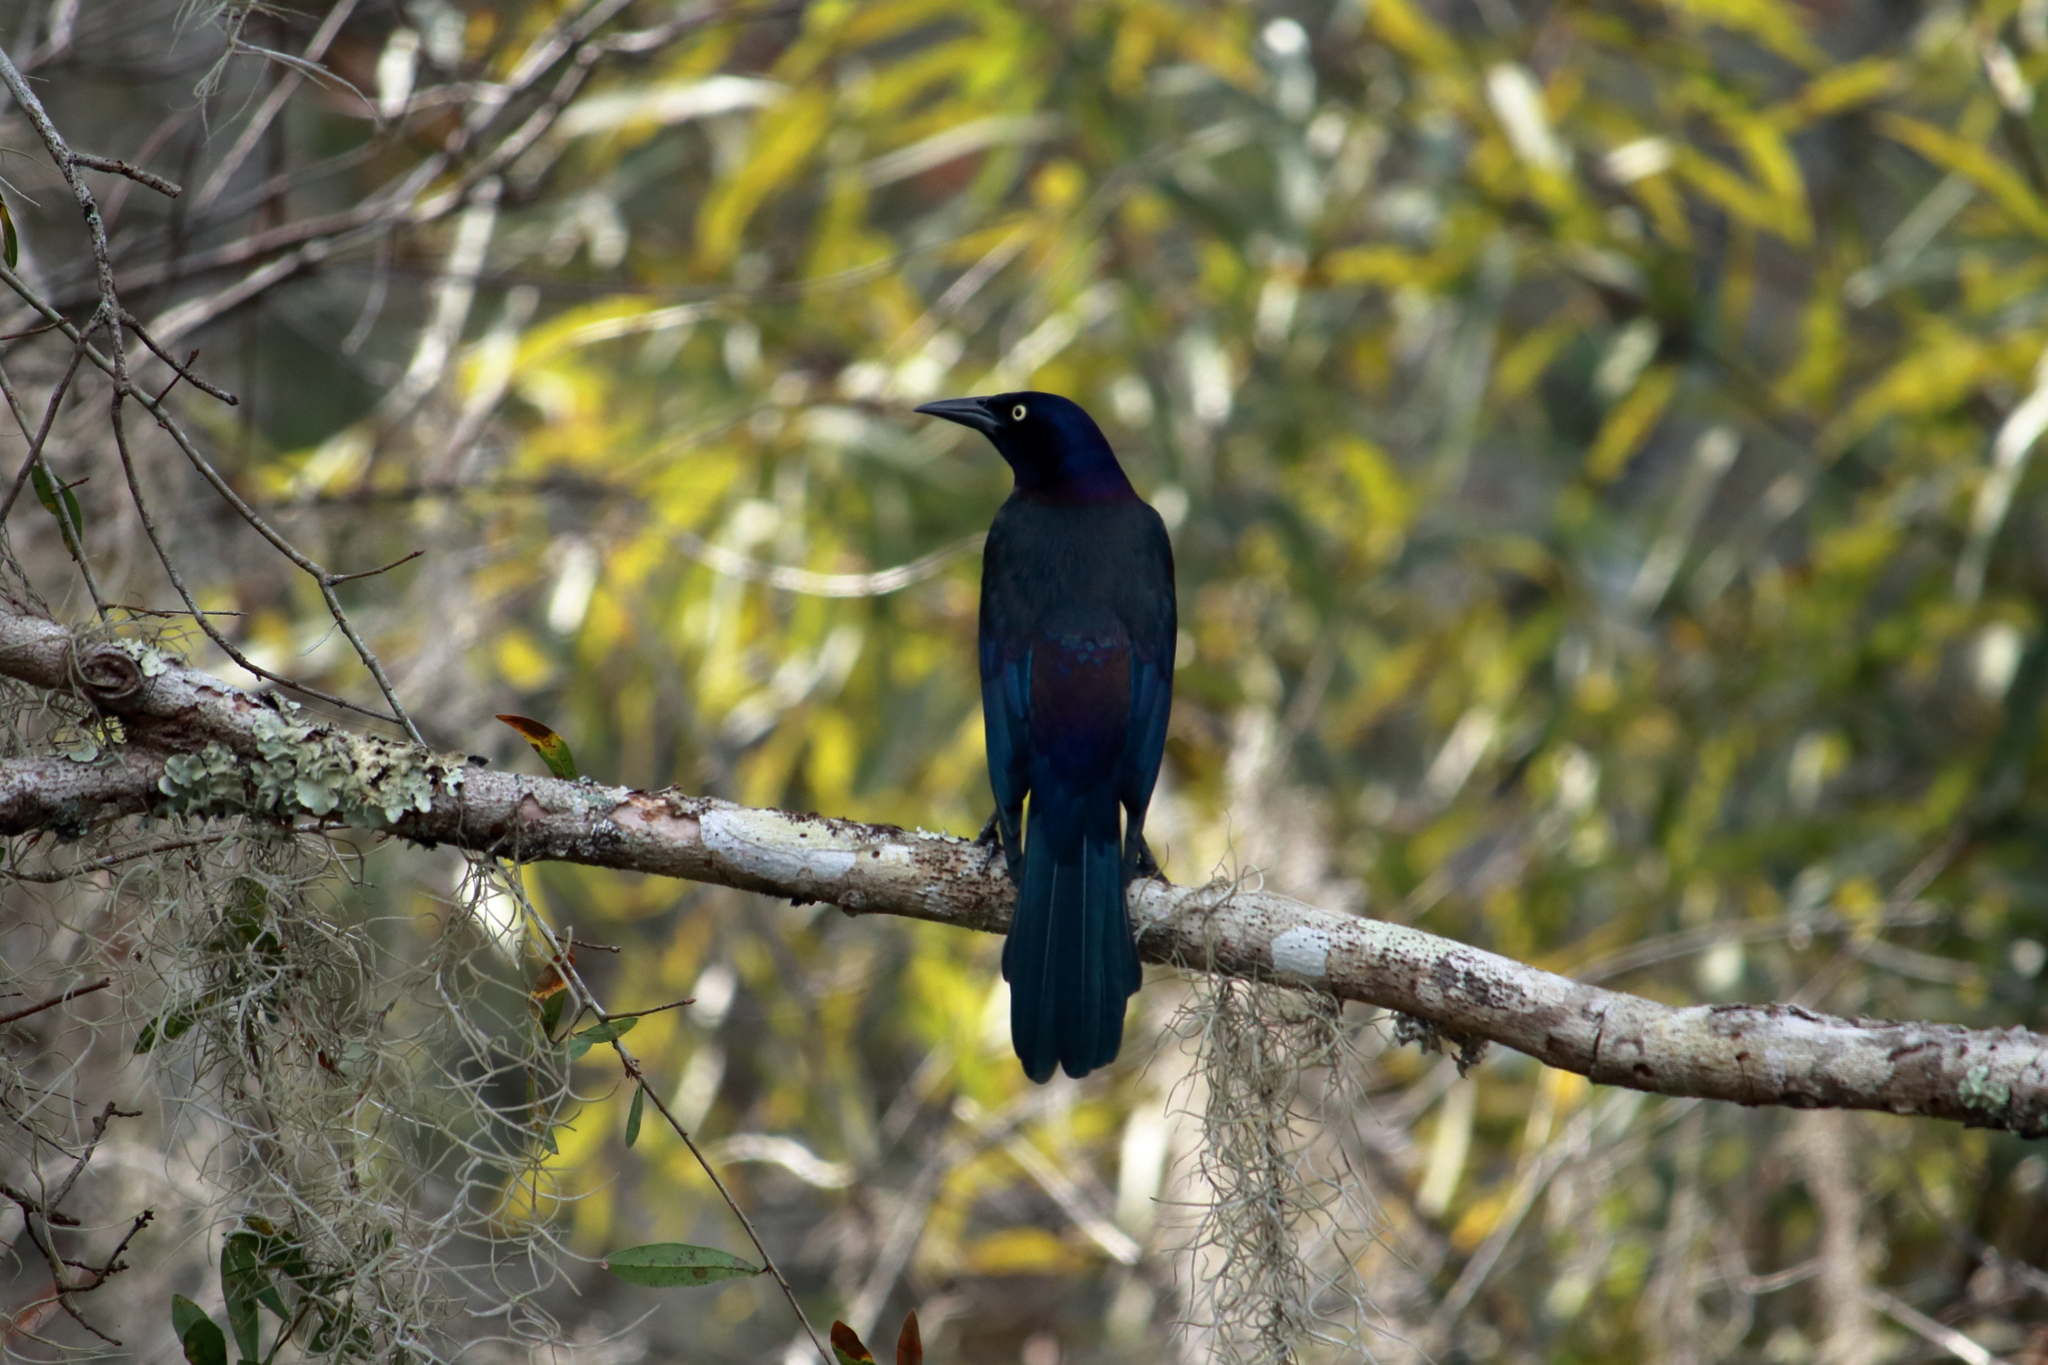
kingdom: Animalia
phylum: Chordata
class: Aves
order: Passeriformes
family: Icteridae
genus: Quiscalus
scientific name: Quiscalus quiscula
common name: Common grackle
